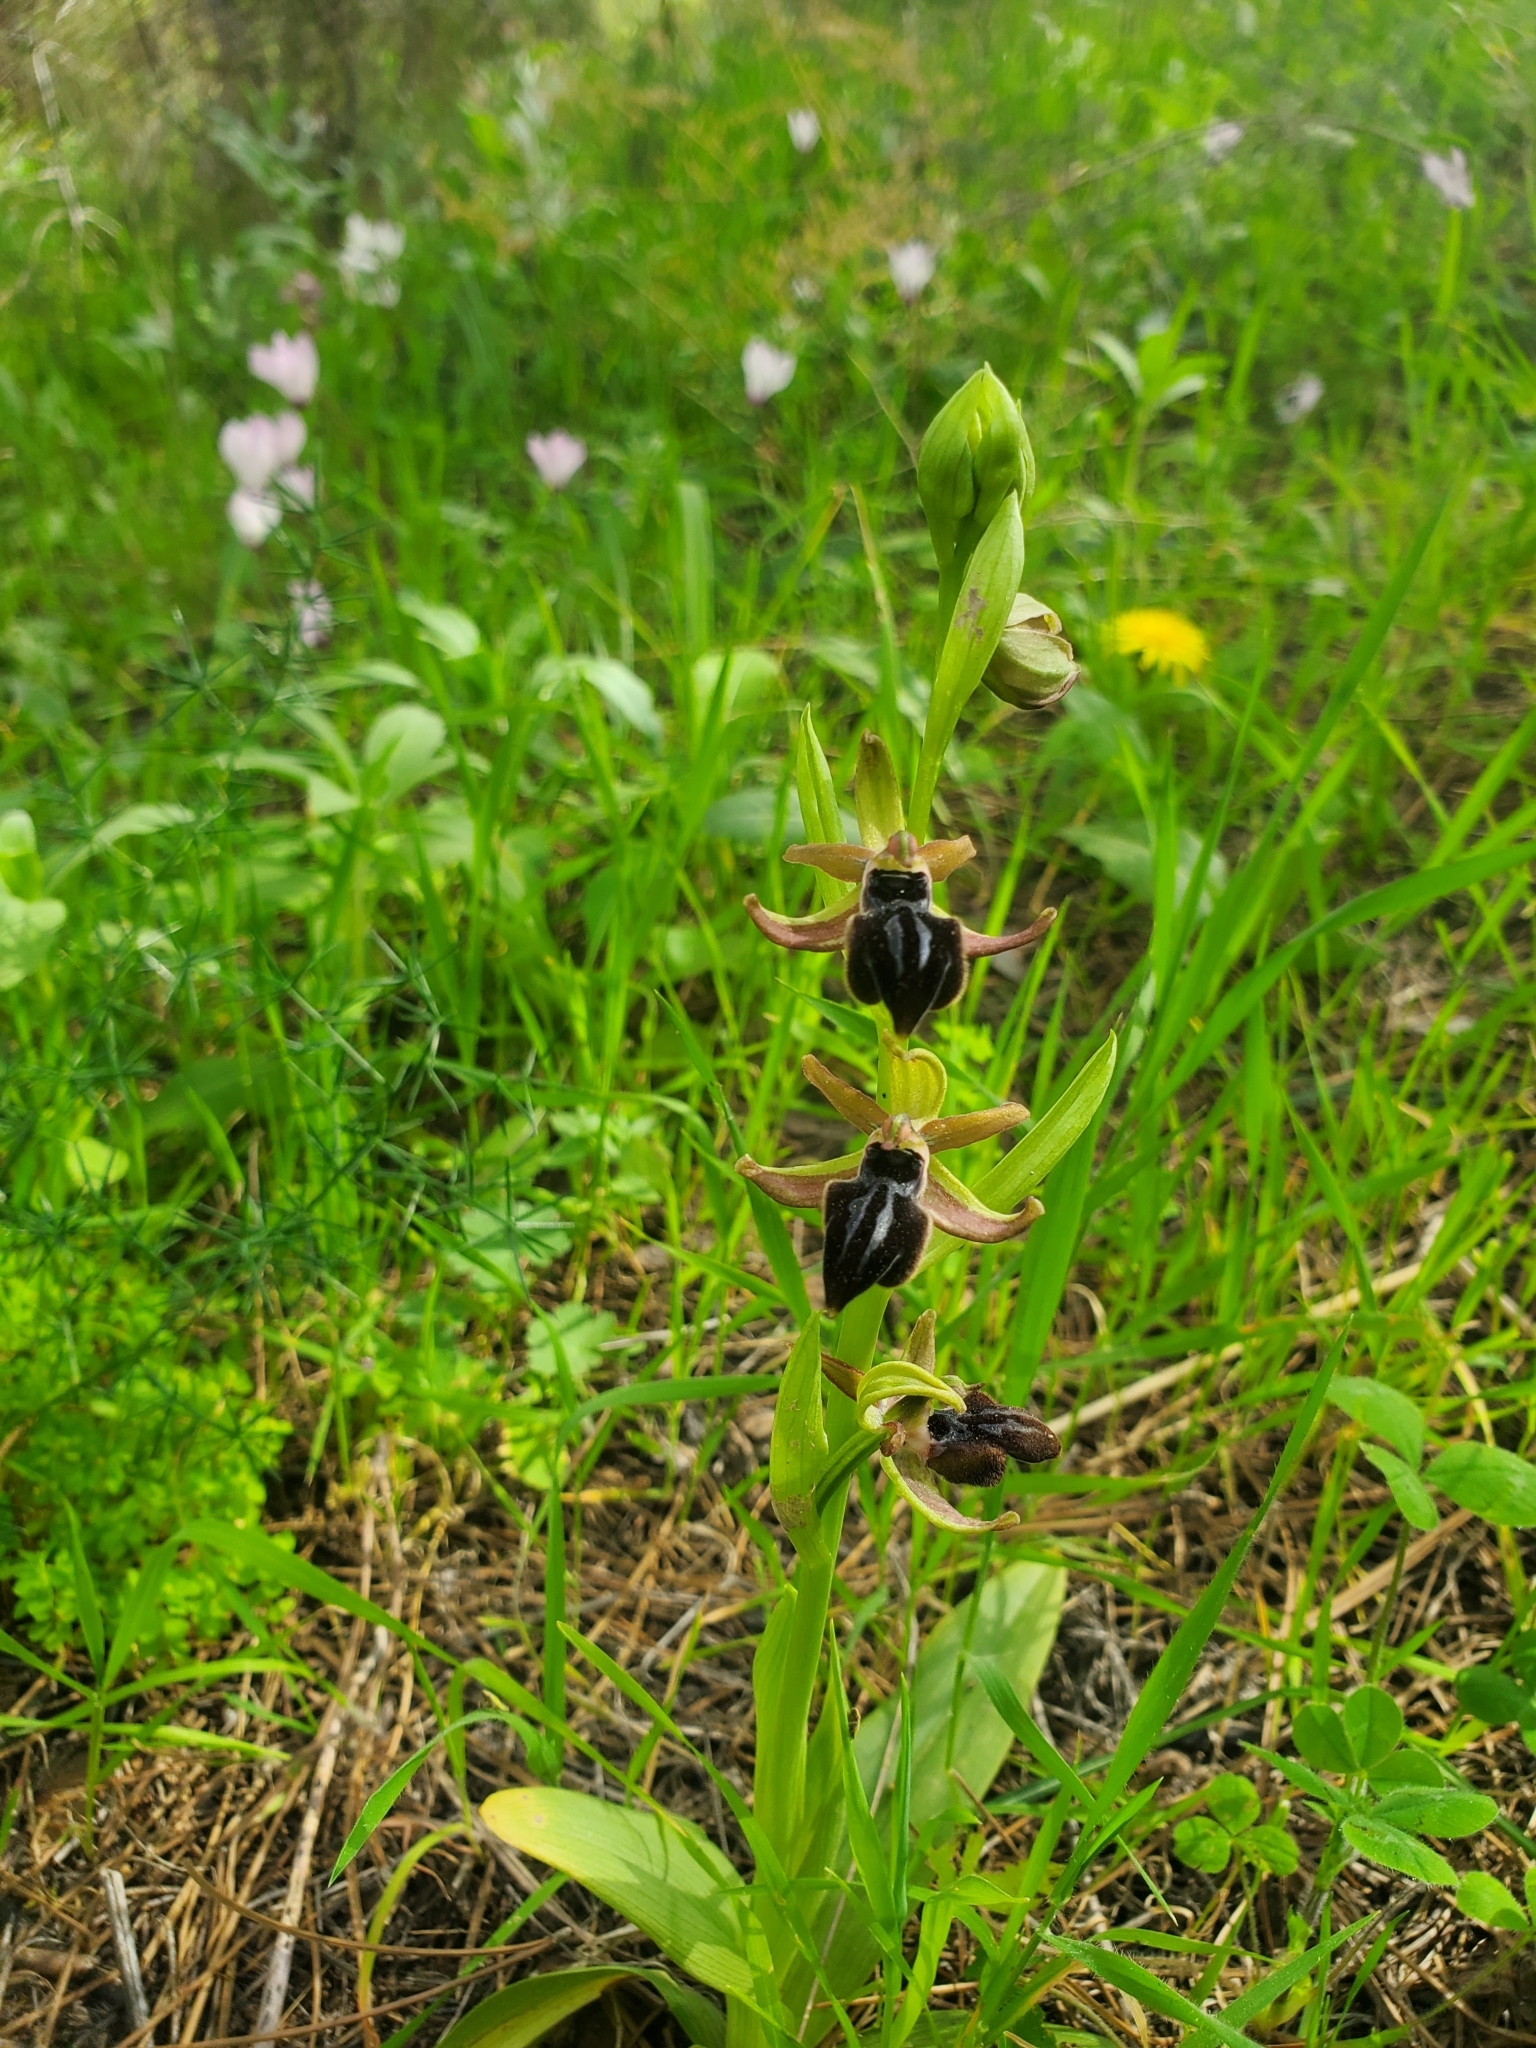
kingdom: Plantae
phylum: Tracheophyta
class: Liliopsida
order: Asparagales
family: Orchidaceae
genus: Ophrys
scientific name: Ophrys sphegodes
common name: Early spider-orchid
